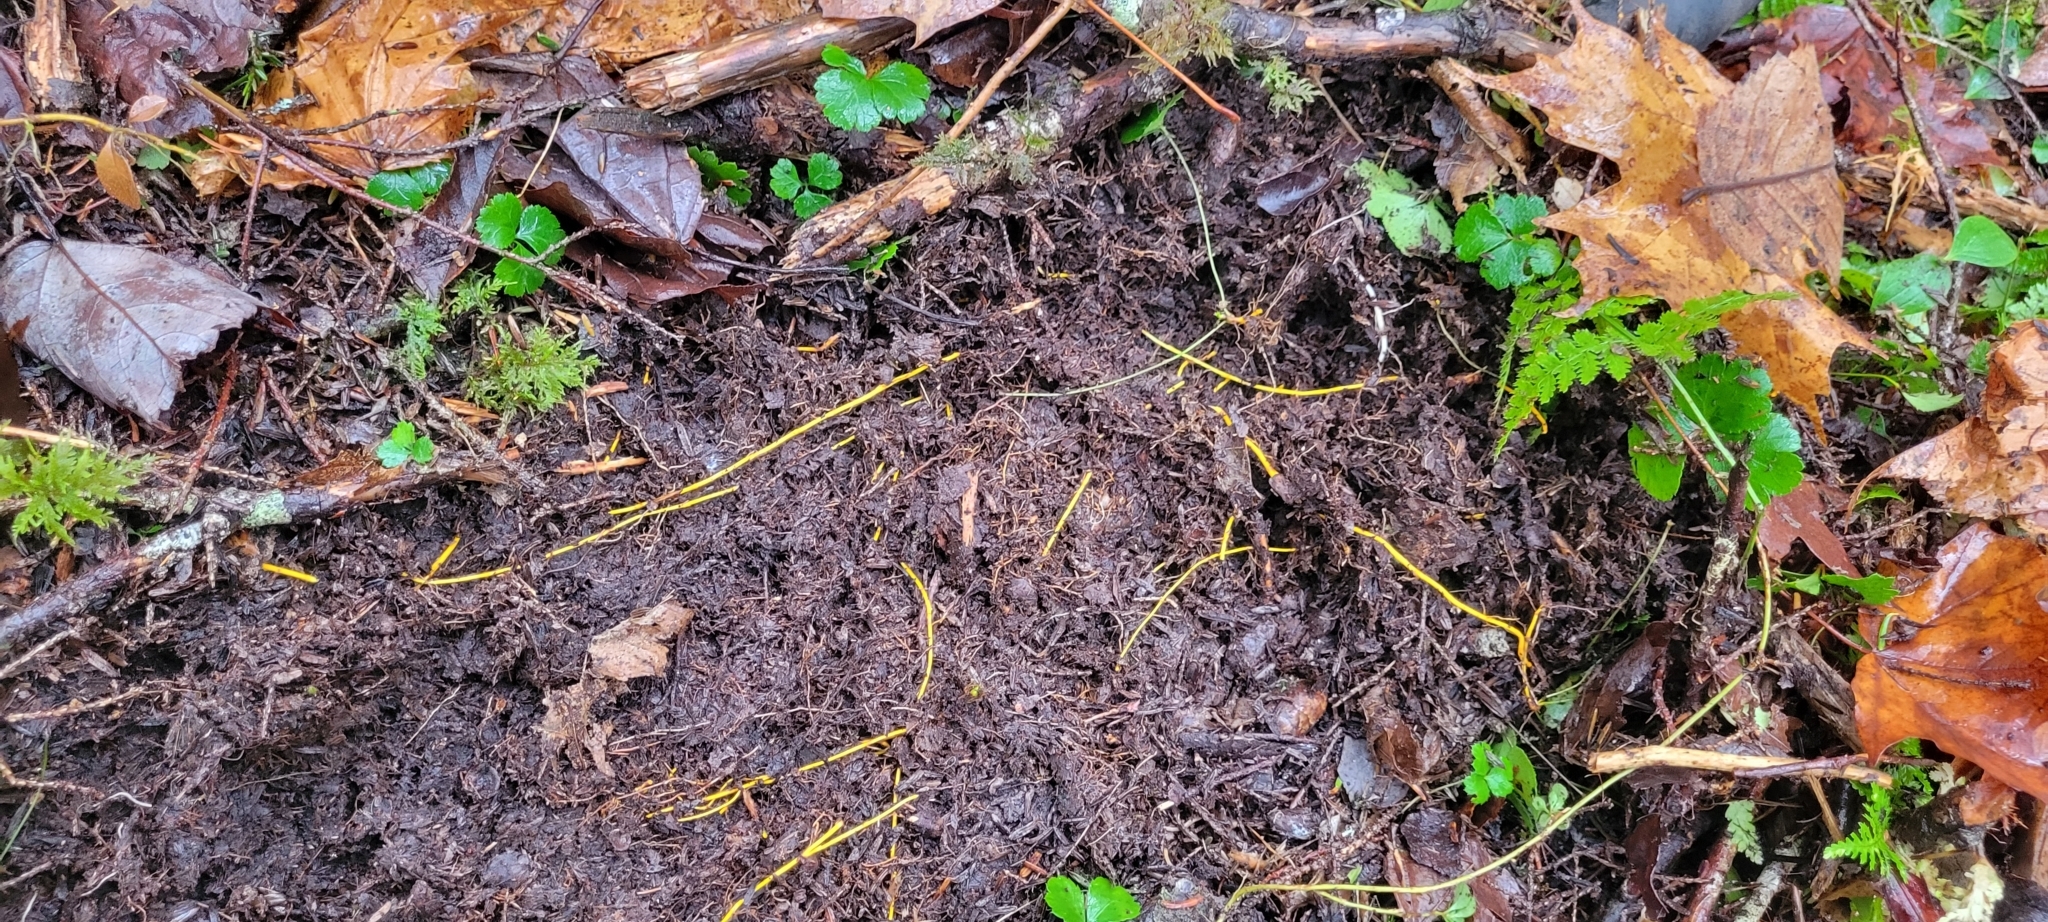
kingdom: Plantae
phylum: Tracheophyta
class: Magnoliopsida
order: Ranunculales
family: Ranunculaceae
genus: Coptis
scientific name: Coptis trifolia
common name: Canker-root
